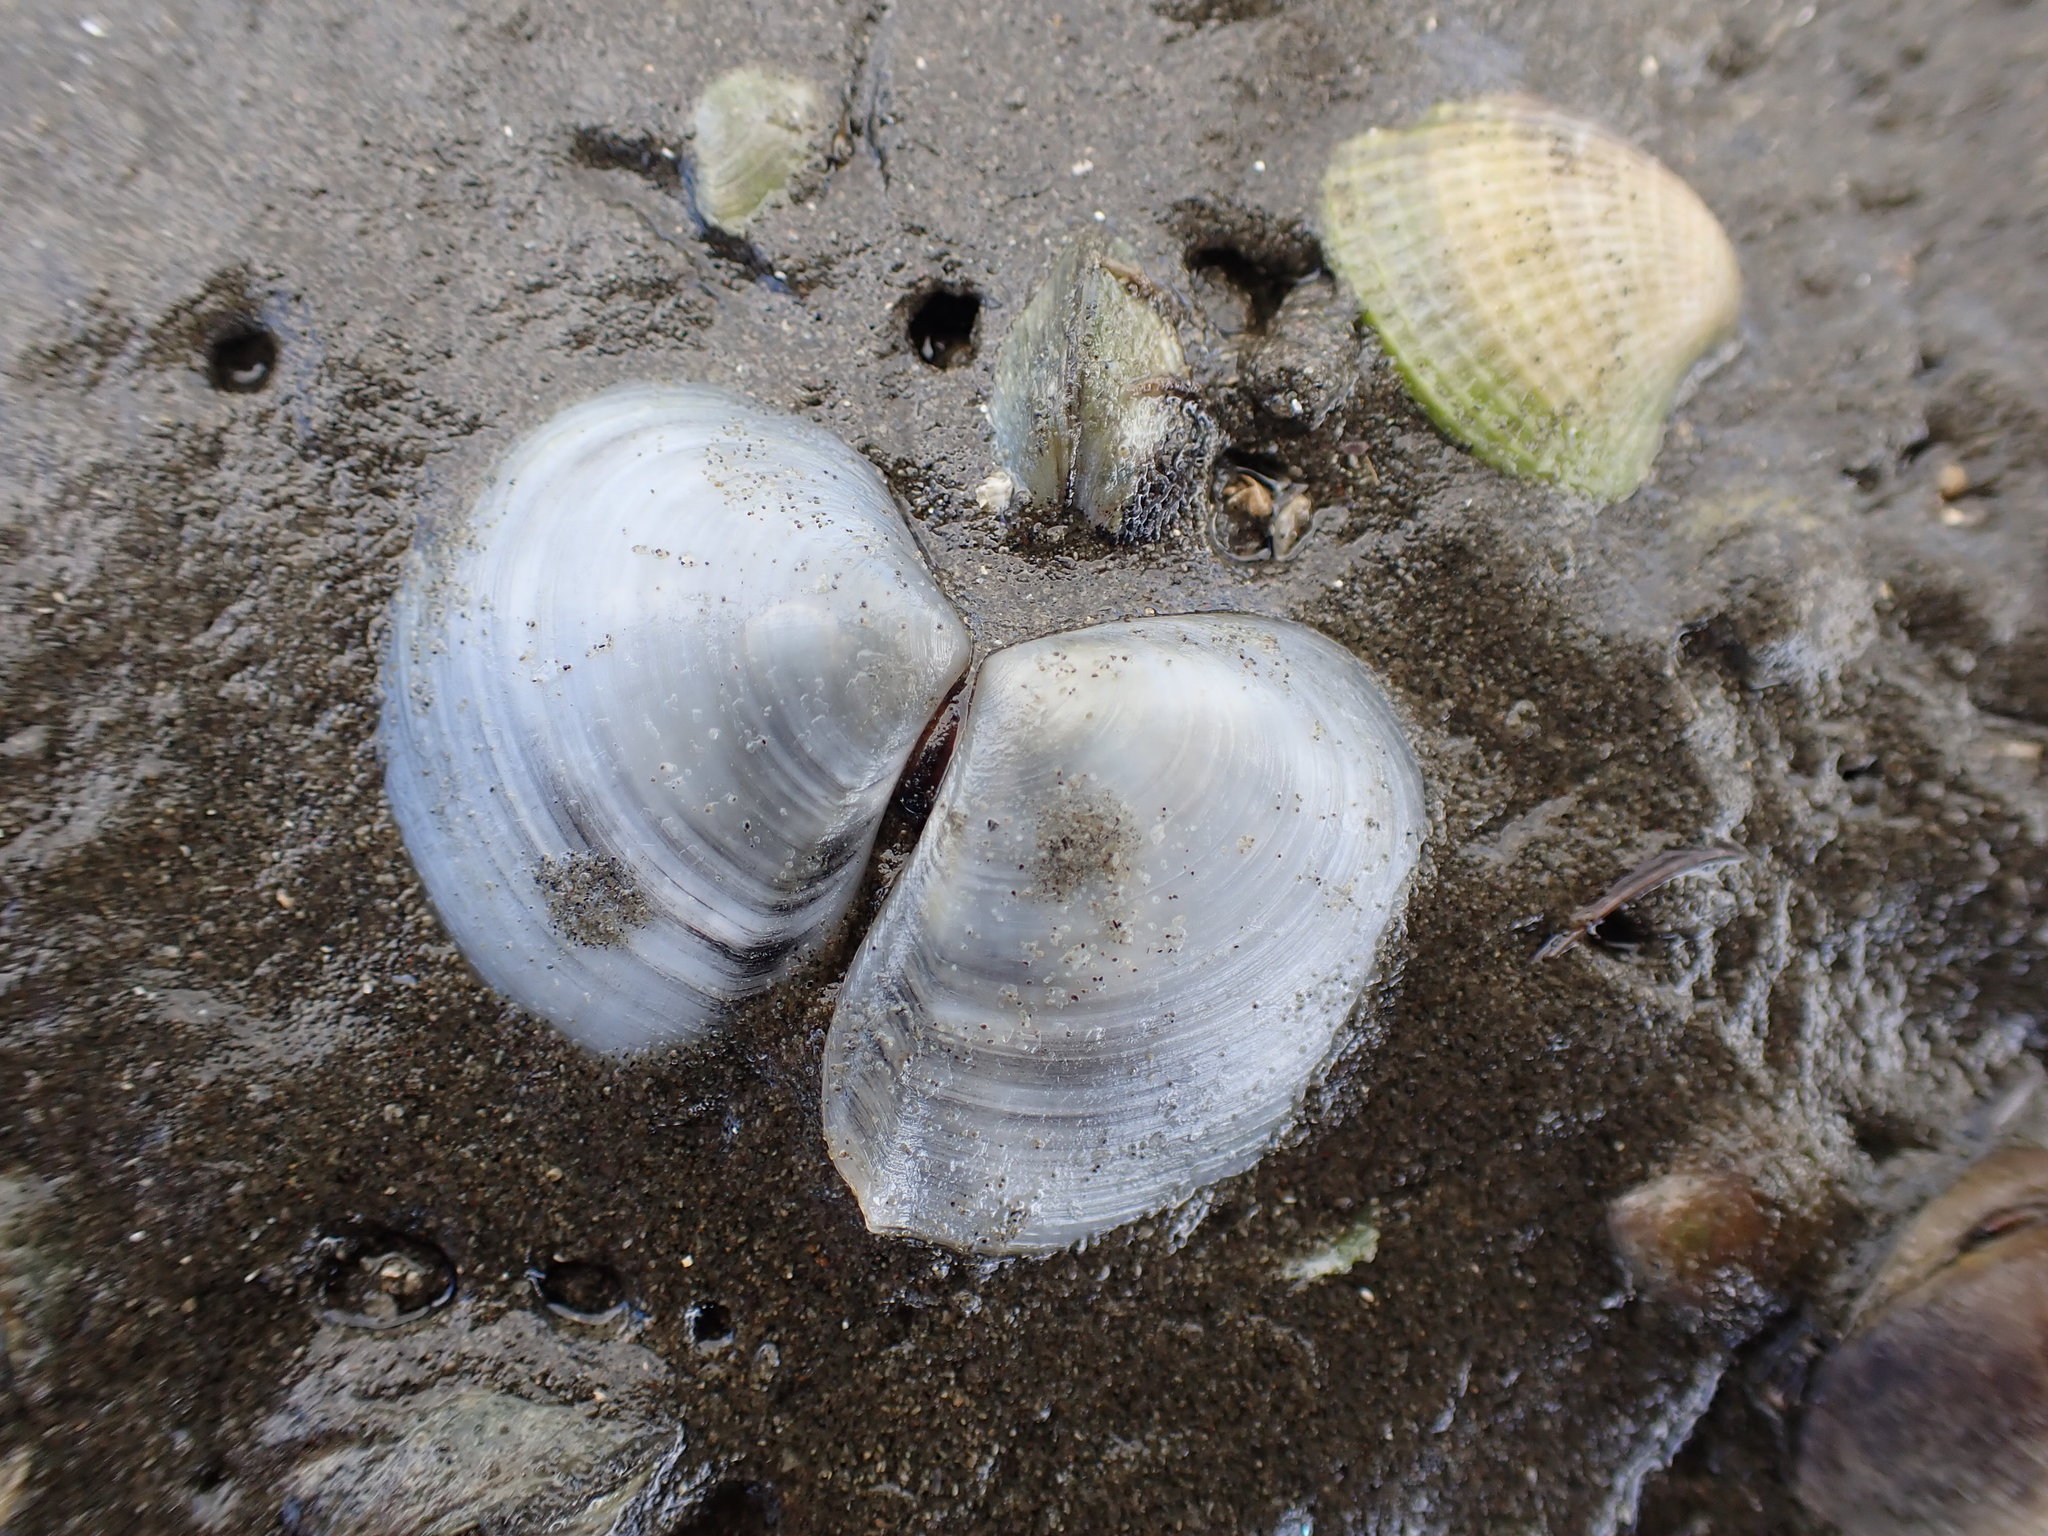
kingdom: Animalia
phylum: Mollusca
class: Bivalvia
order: Cardiida
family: Tellinidae
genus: Macomona
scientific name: Macomona liliana
